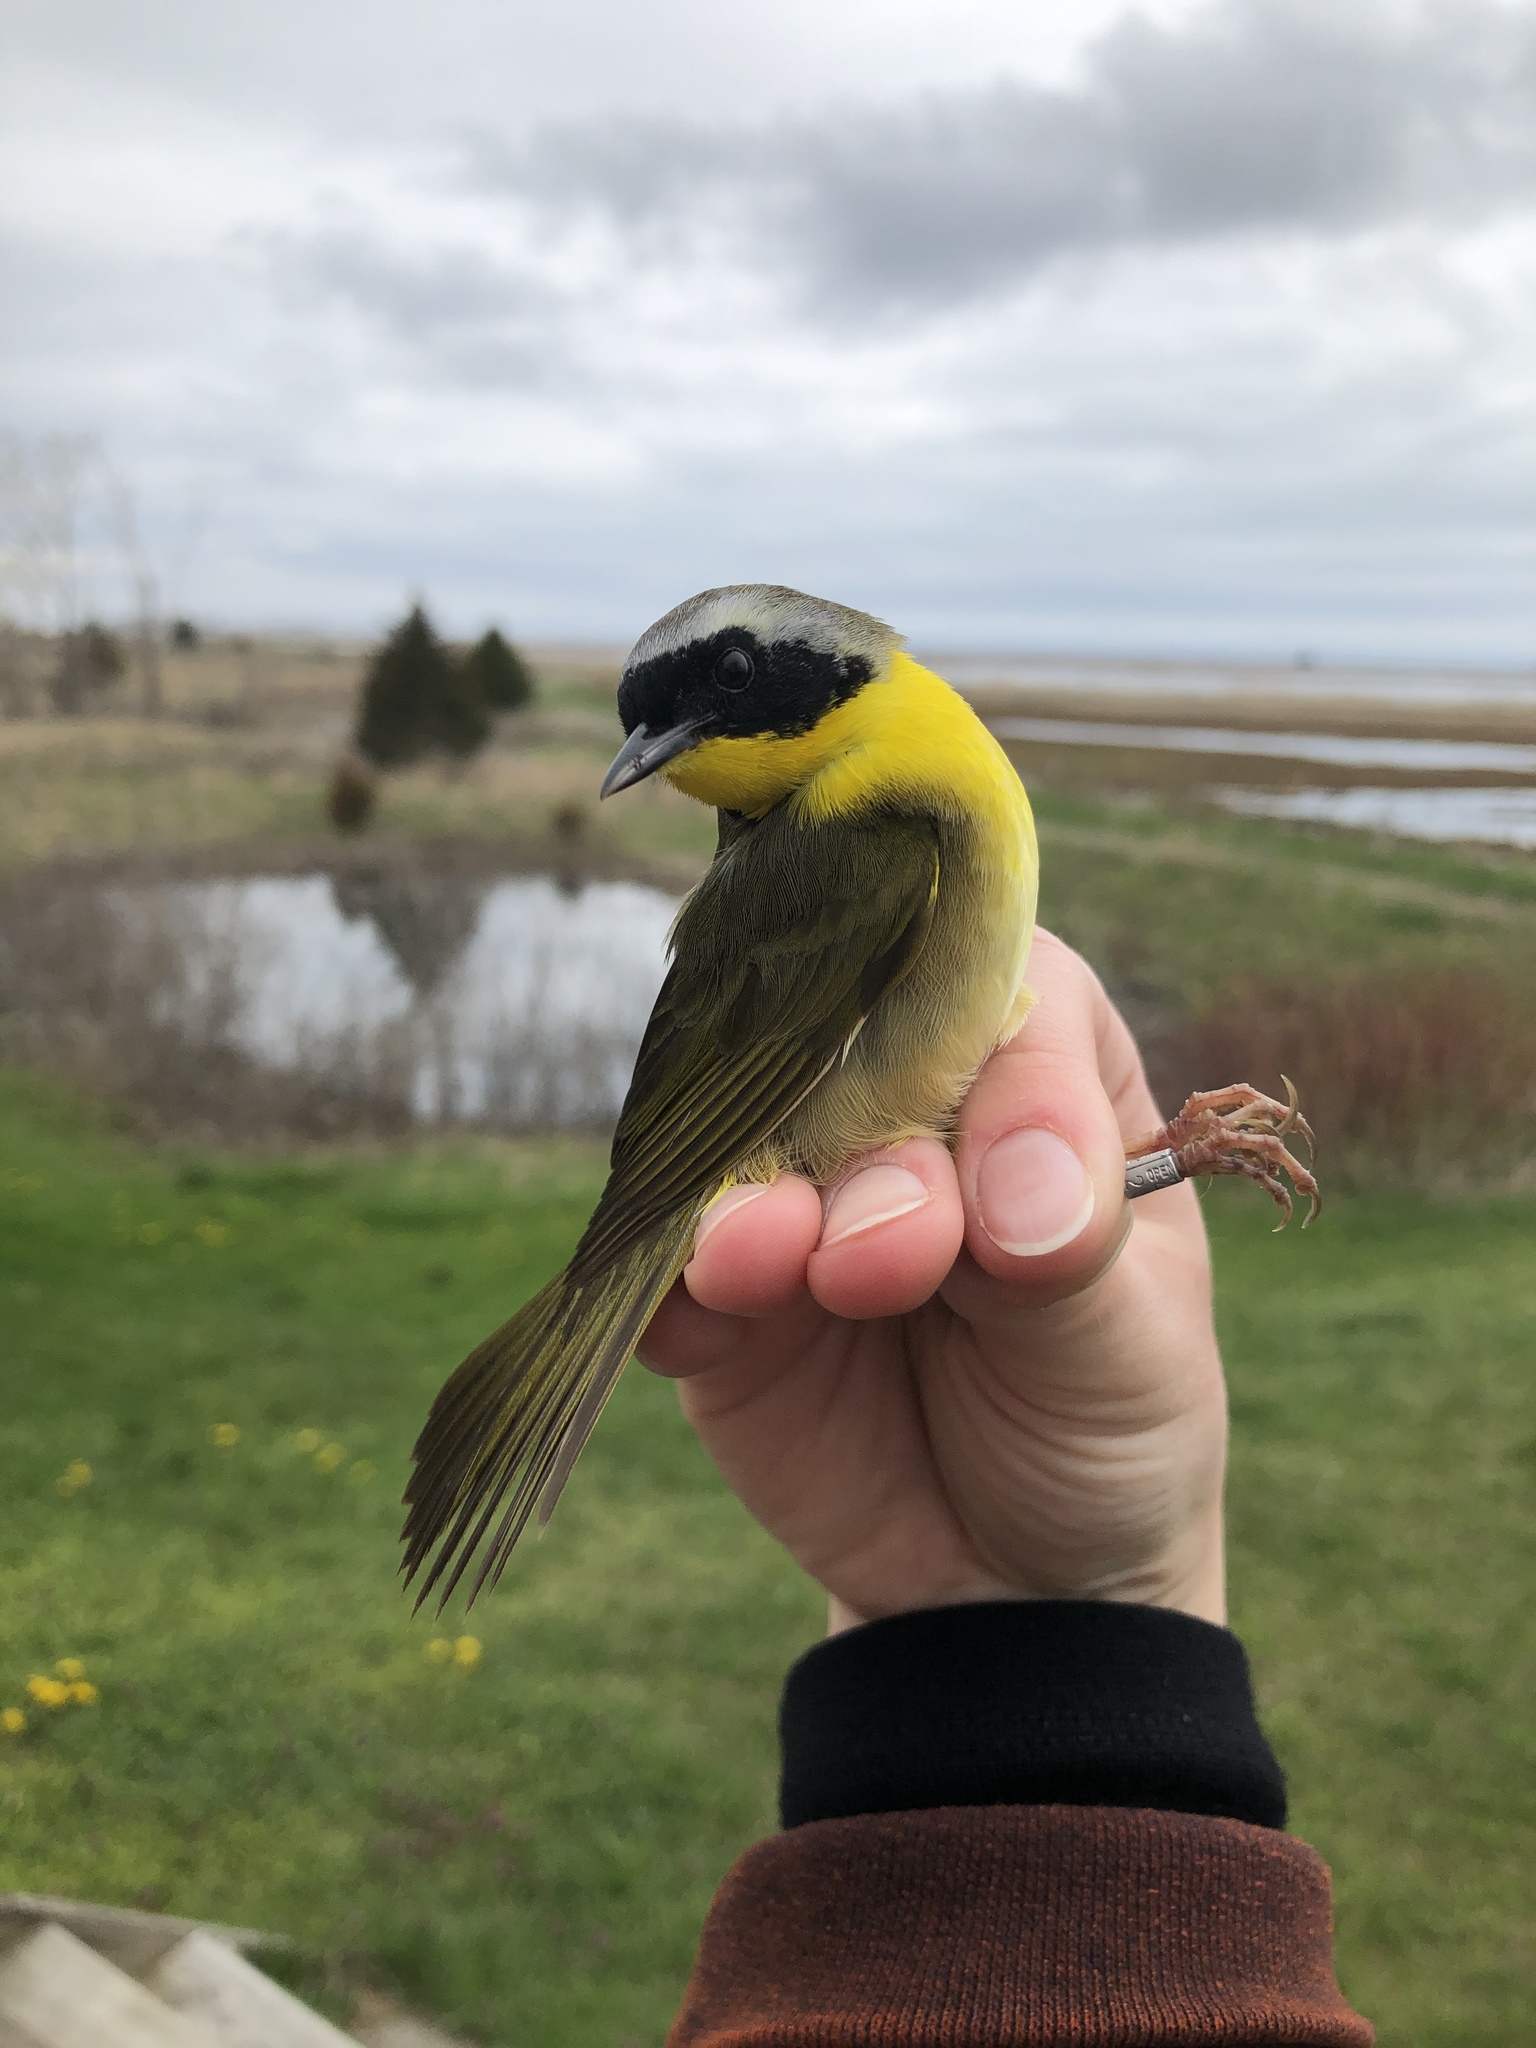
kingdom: Animalia
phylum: Chordata
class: Aves
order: Passeriformes
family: Parulidae
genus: Geothlypis
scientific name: Geothlypis trichas
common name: Common yellowthroat
